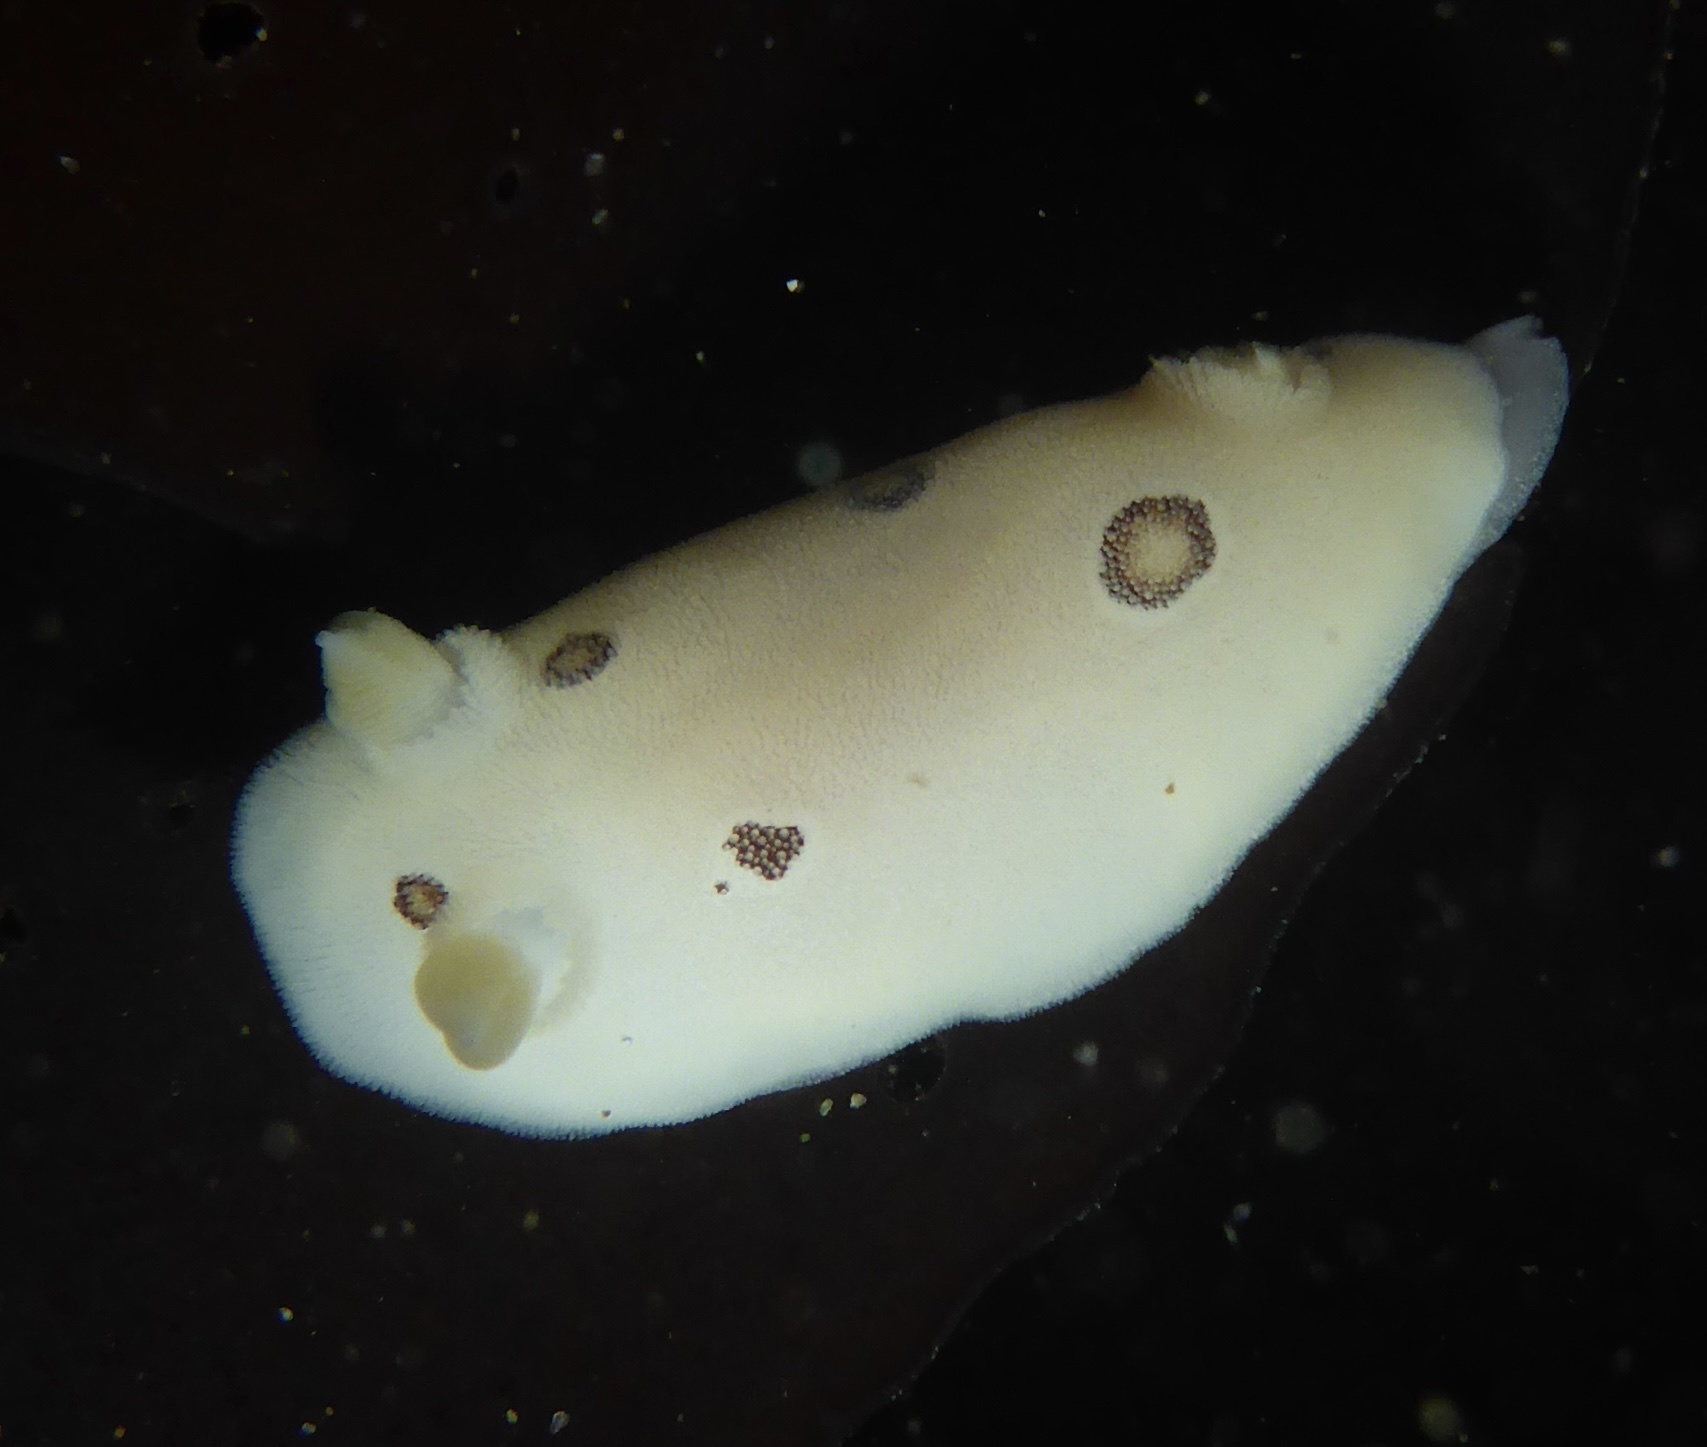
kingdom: Animalia
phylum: Mollusca
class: Gastropoda
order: Nudibranchia
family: Discodorididae
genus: Diaulula
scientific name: Diaulula sandiegensis
